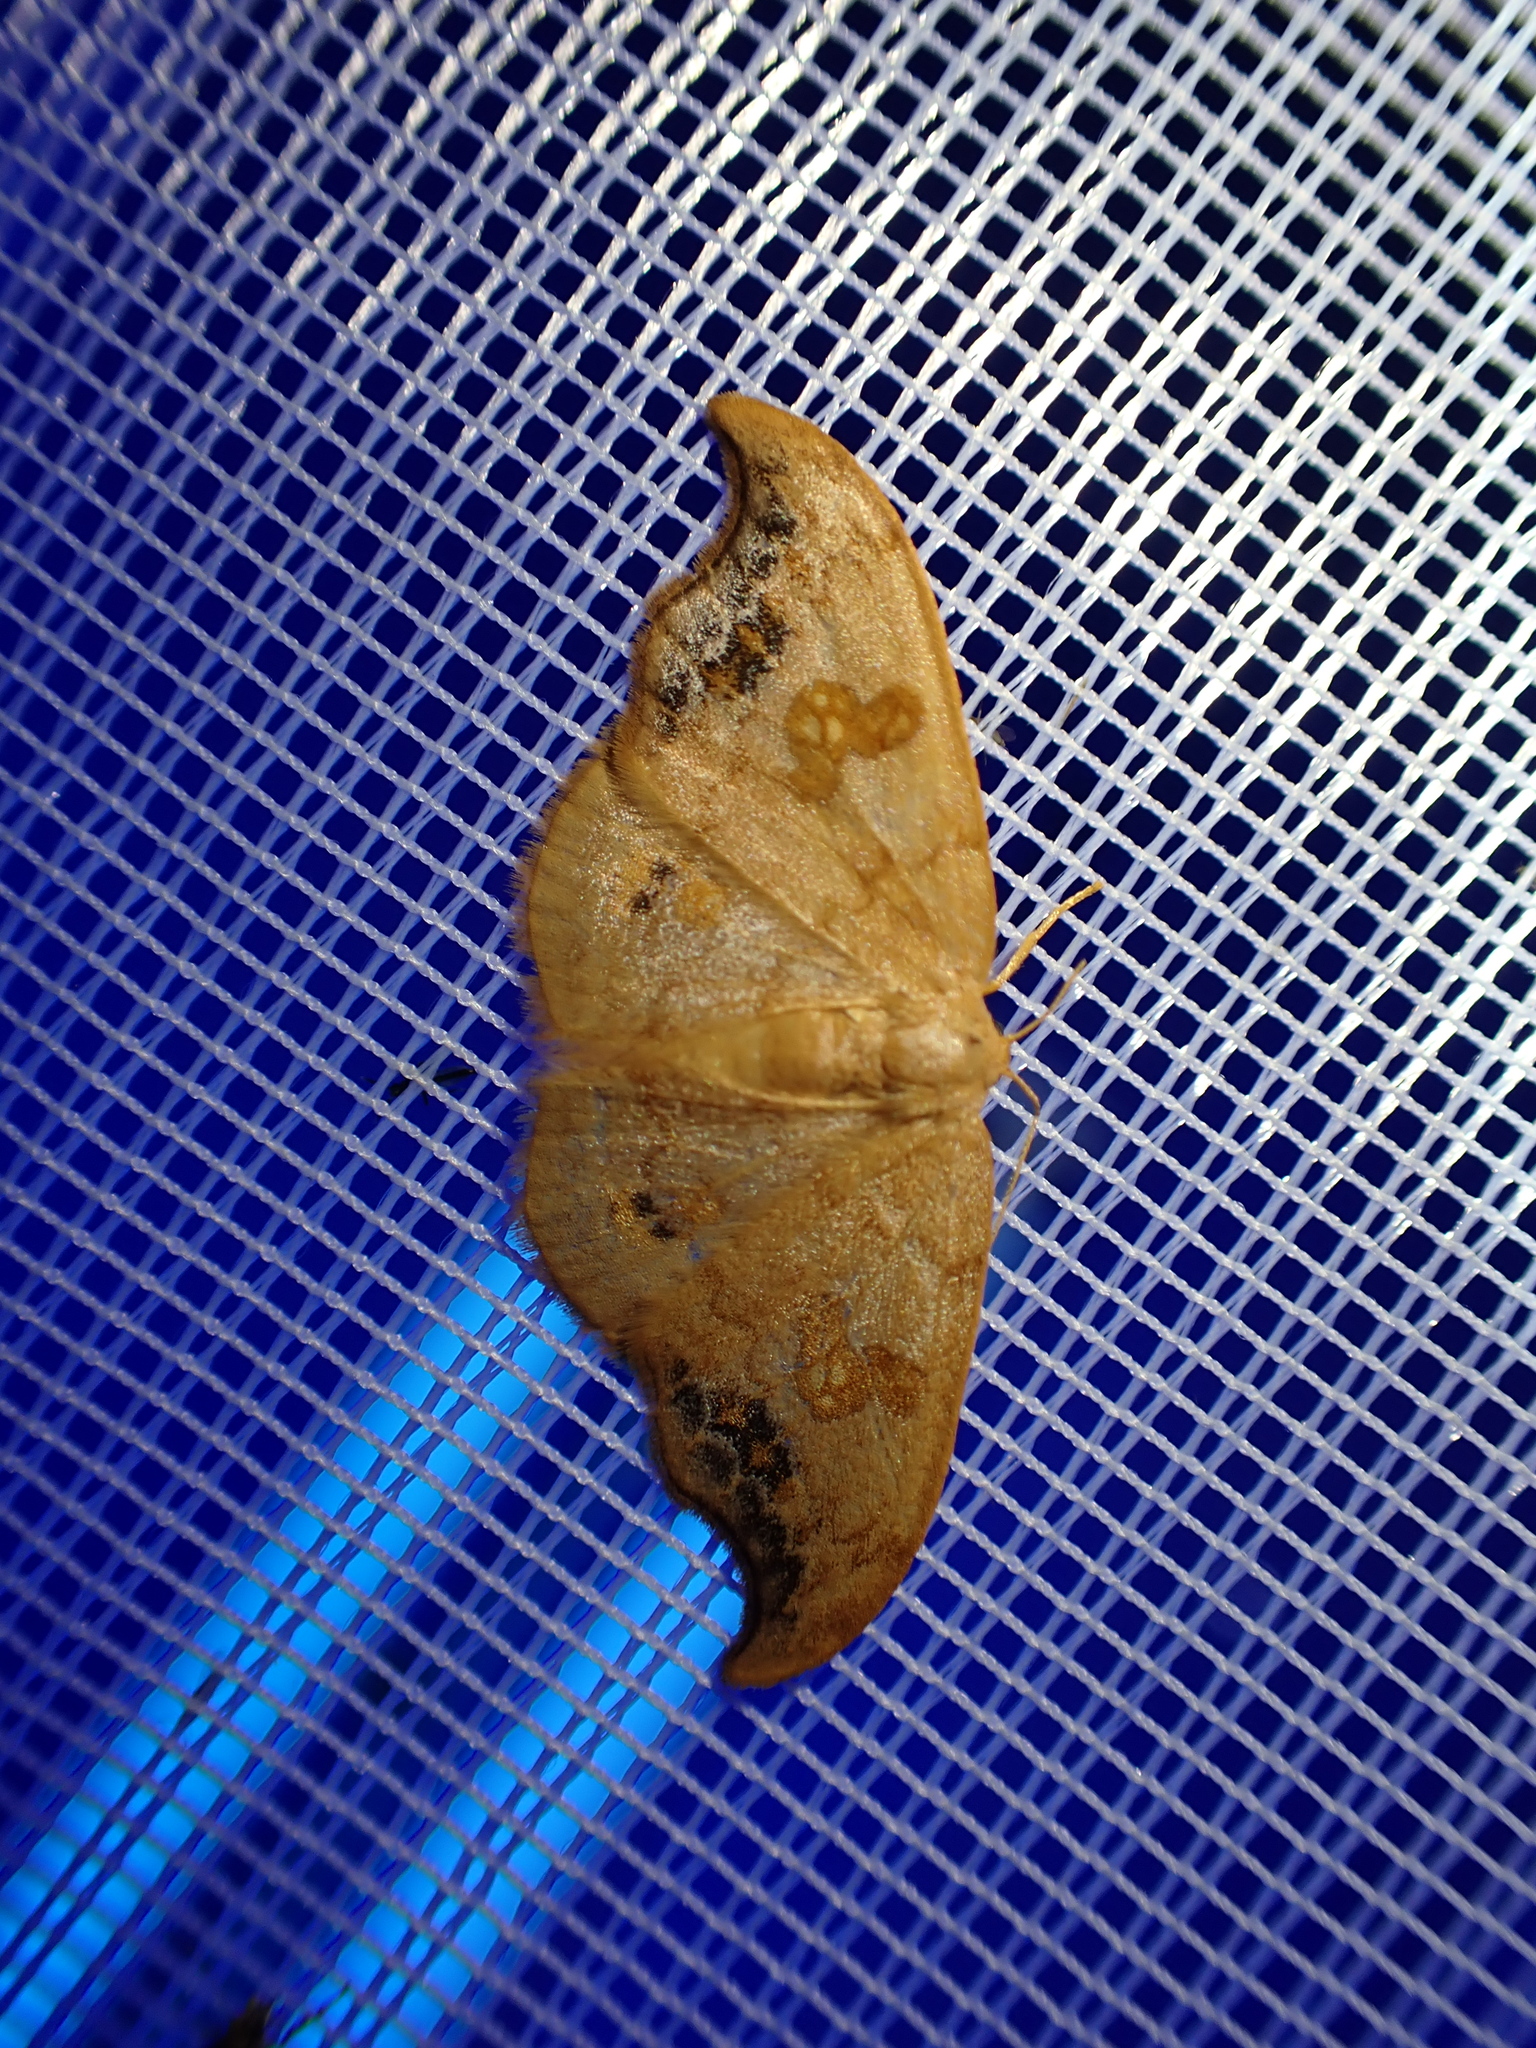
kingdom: Animalia
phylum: Arthropoda
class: Insecta
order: Lepidoptera
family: Drepanidae
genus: Sabra
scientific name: Sabra harpagula
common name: Scarce hook-tip
